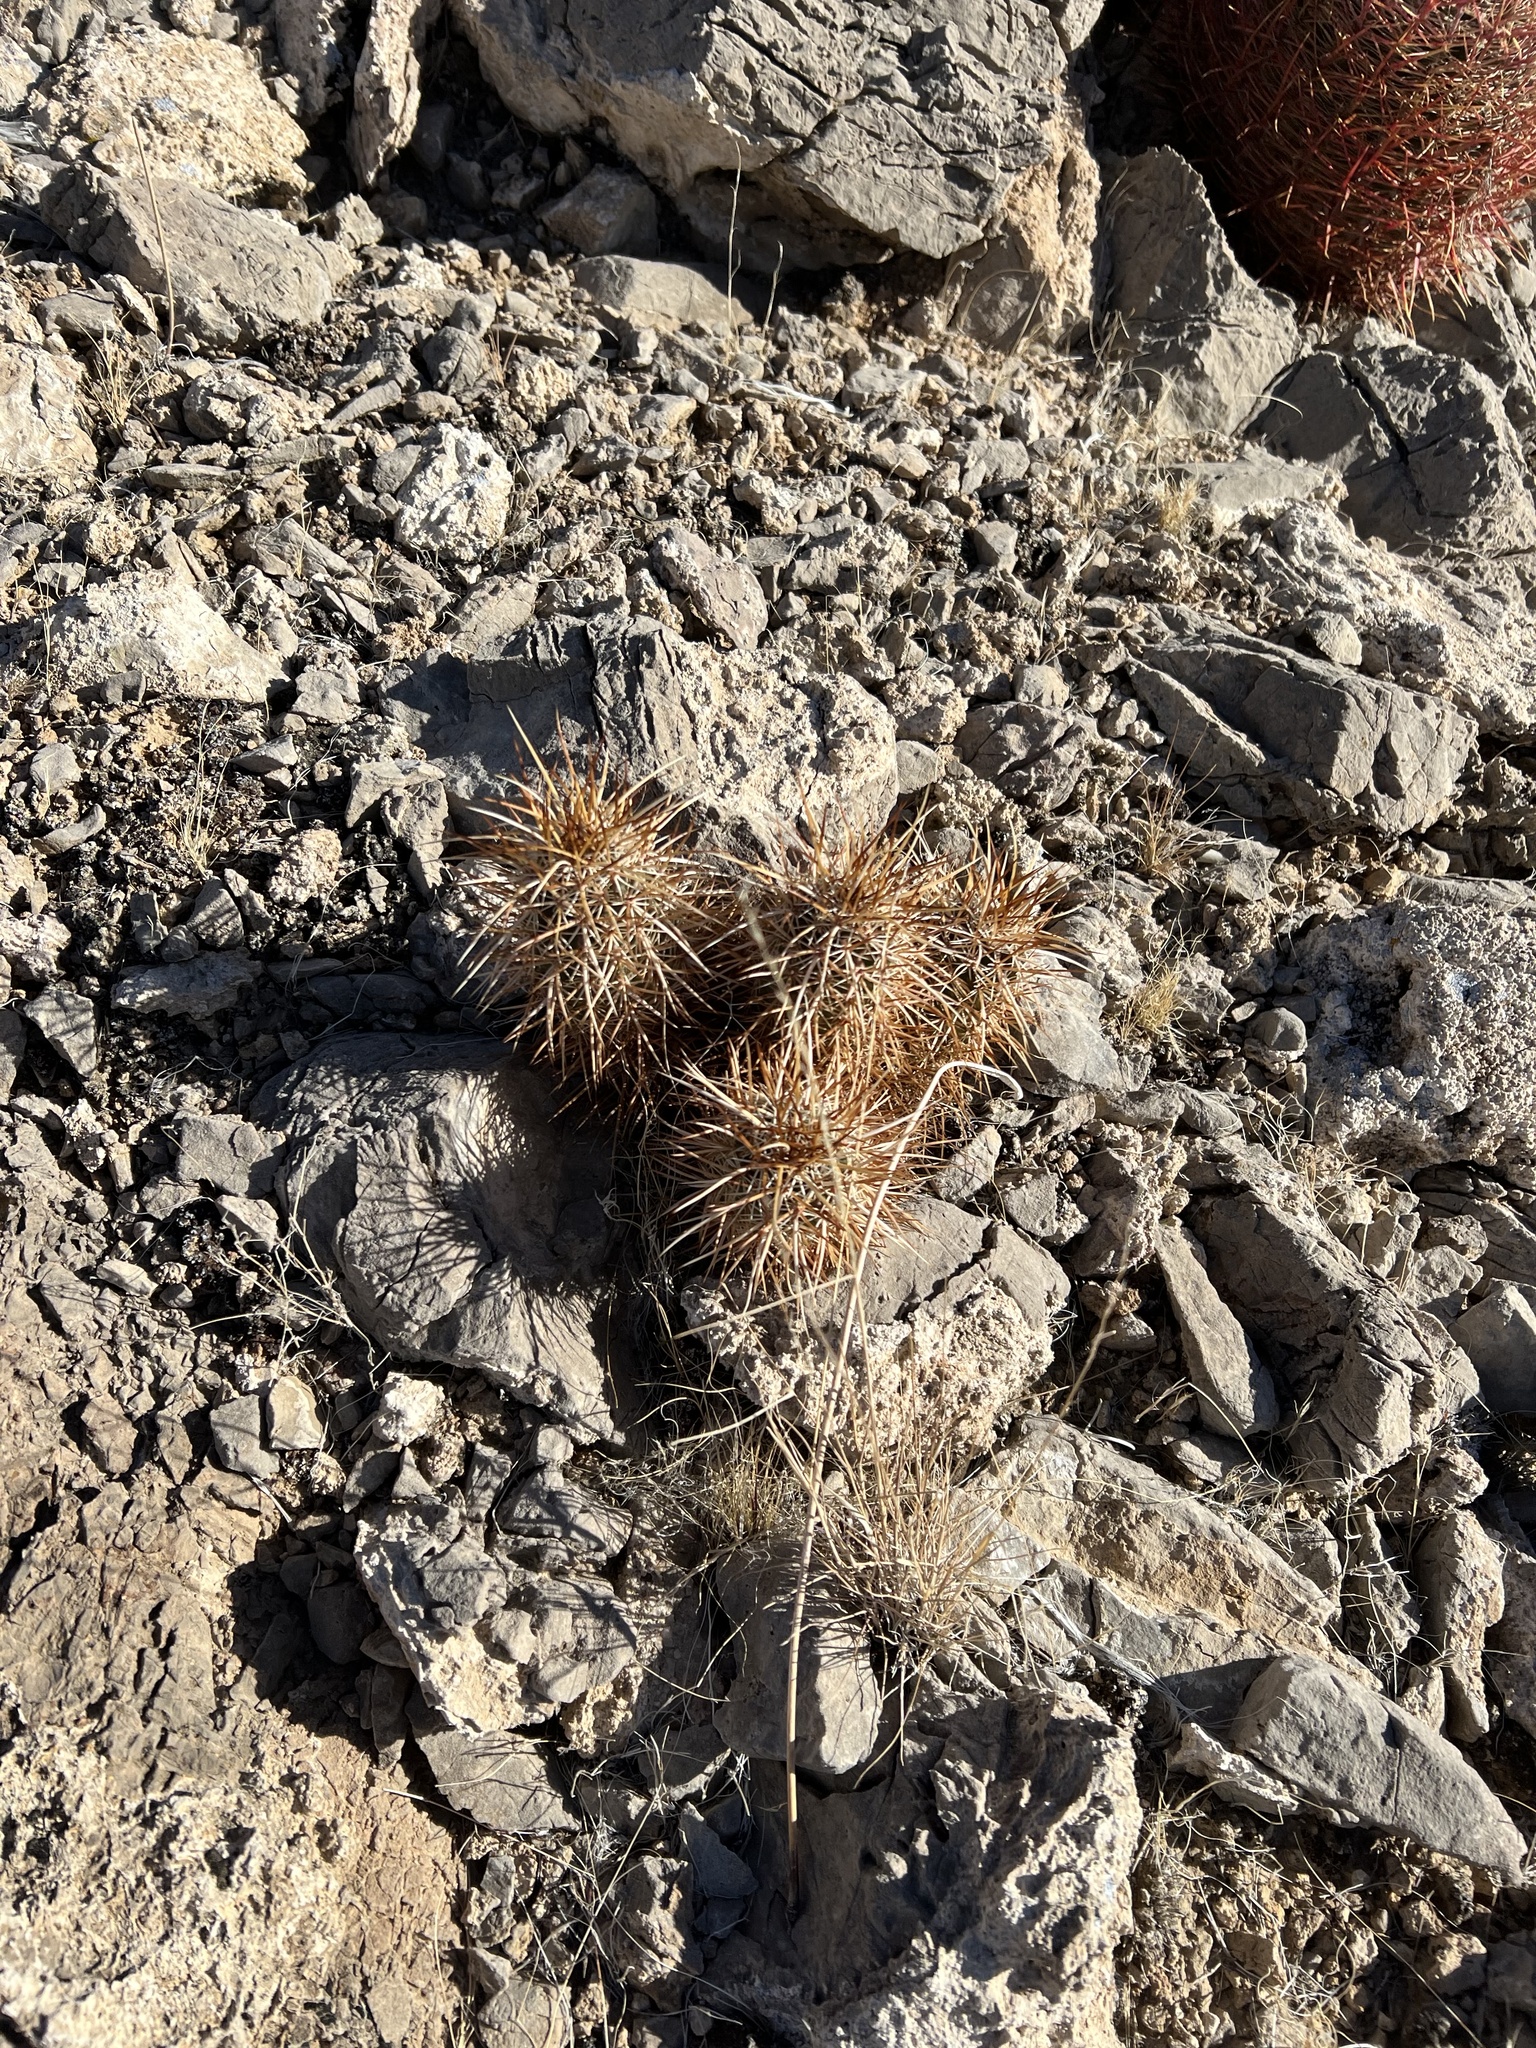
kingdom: Plantae
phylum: Tracheophyta
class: Magnoliopsida
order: Caryophyllales
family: Cactaceae
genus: Echinocereus
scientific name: Echinocereus engelmannii
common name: Engelmann's hedgehog cactus
